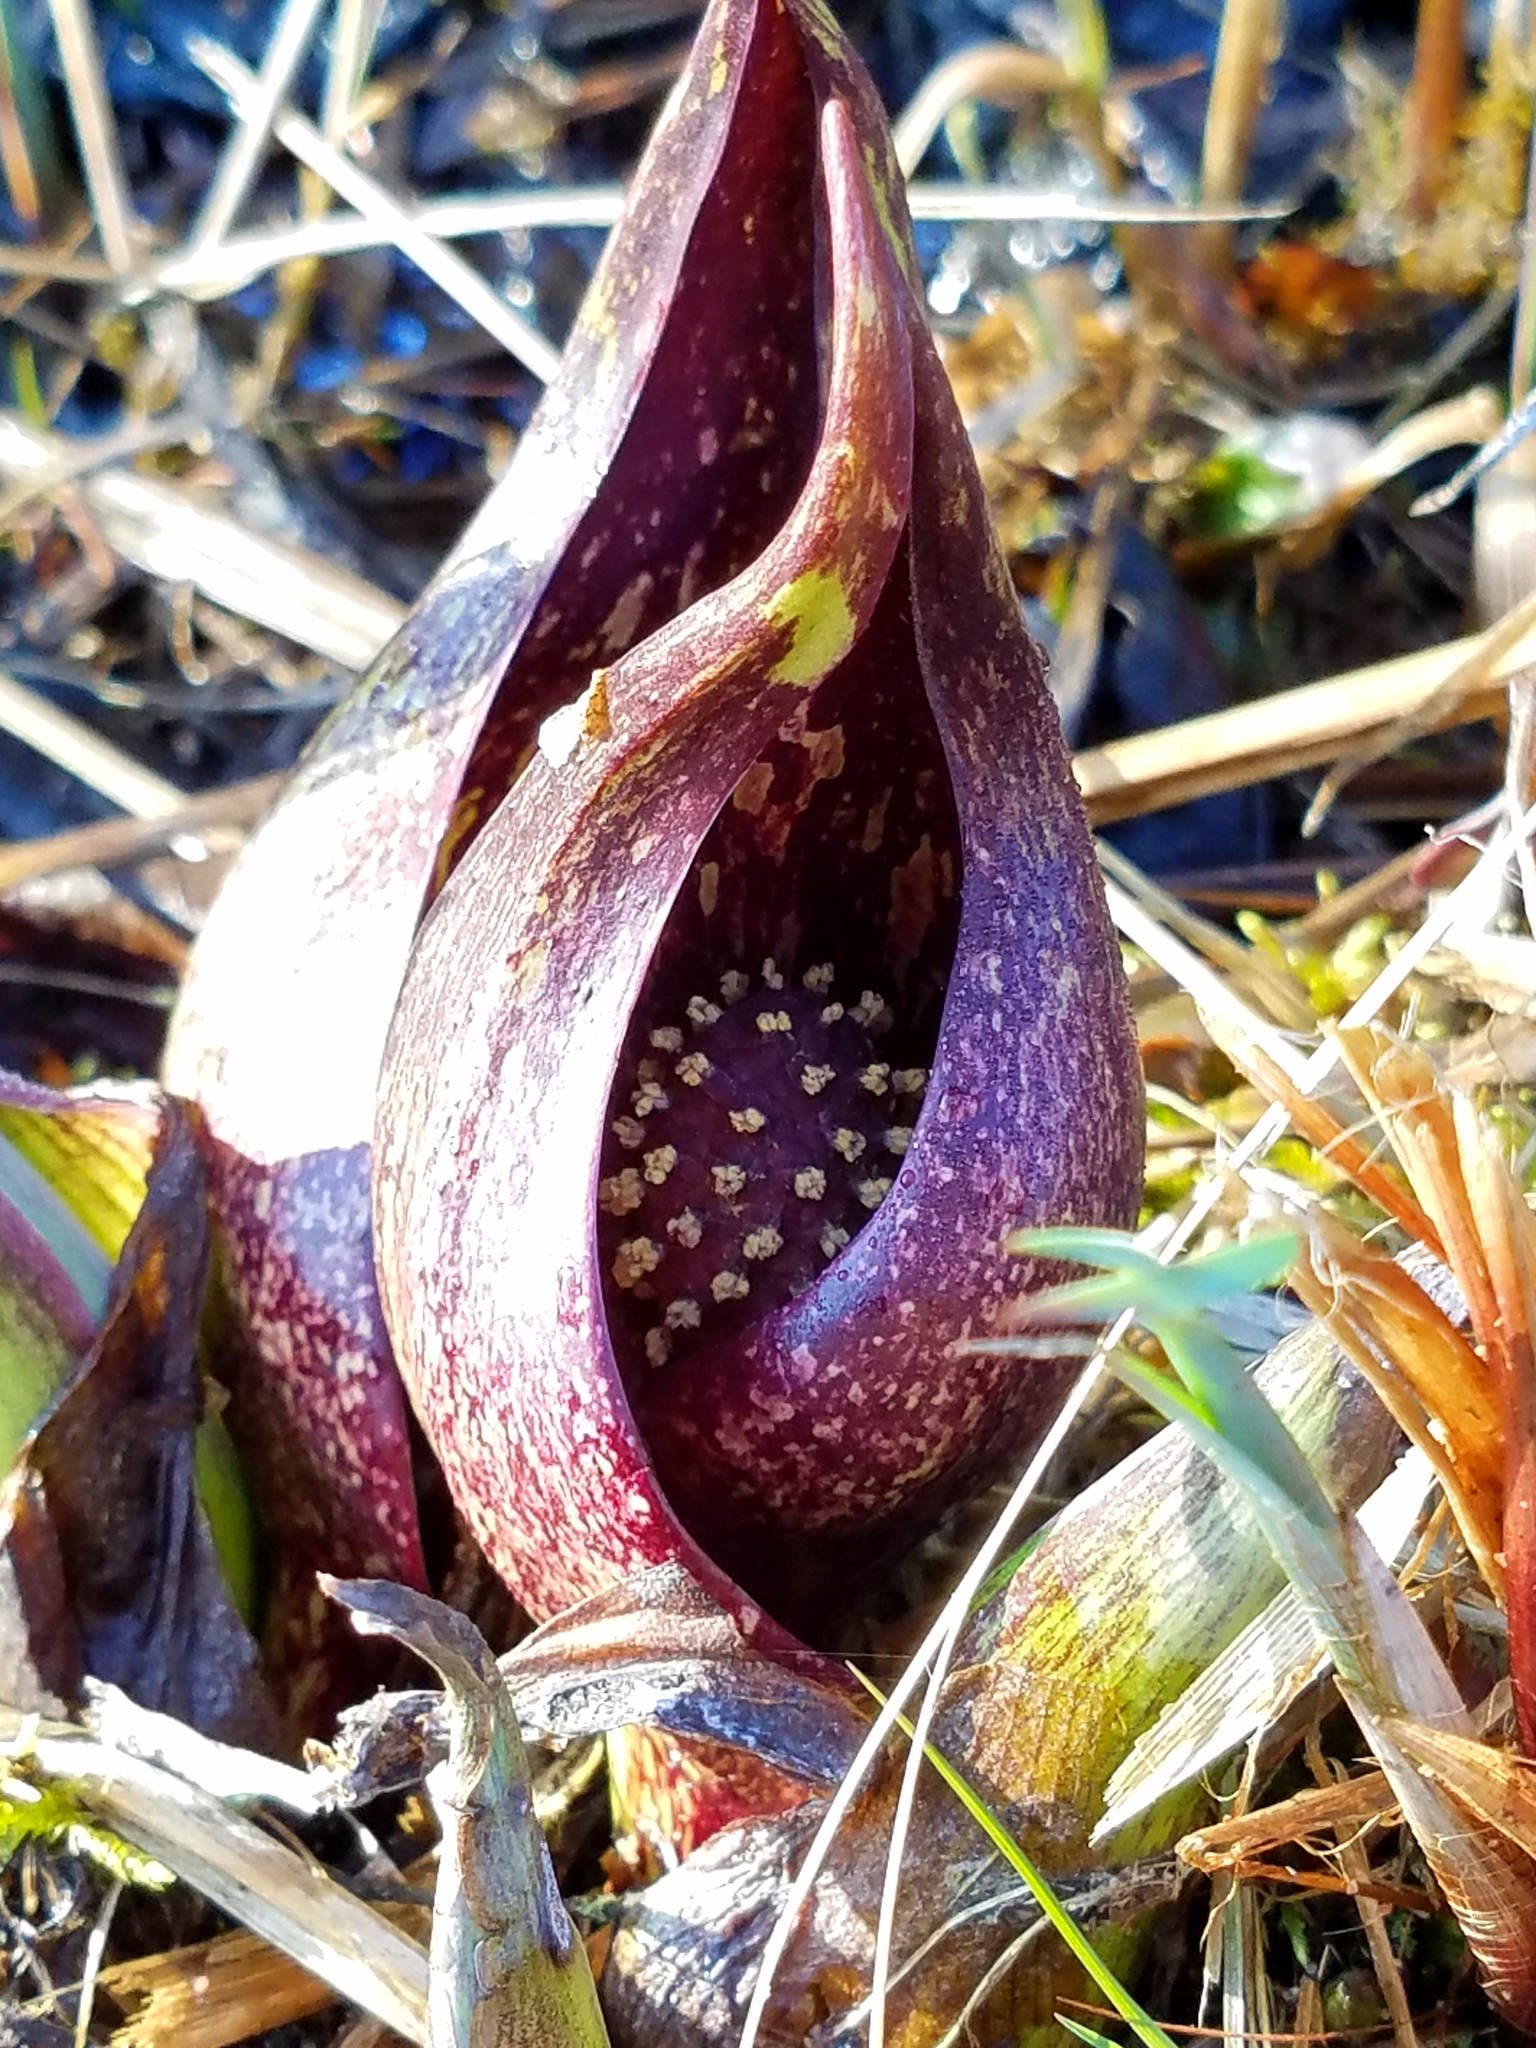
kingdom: Plantae
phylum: Tracheophyta
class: Liliopsida
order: Alismatales
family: Araceae
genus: Symplocarpus
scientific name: Symplocarpus foetidus
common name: Eastern skunk cabbage
